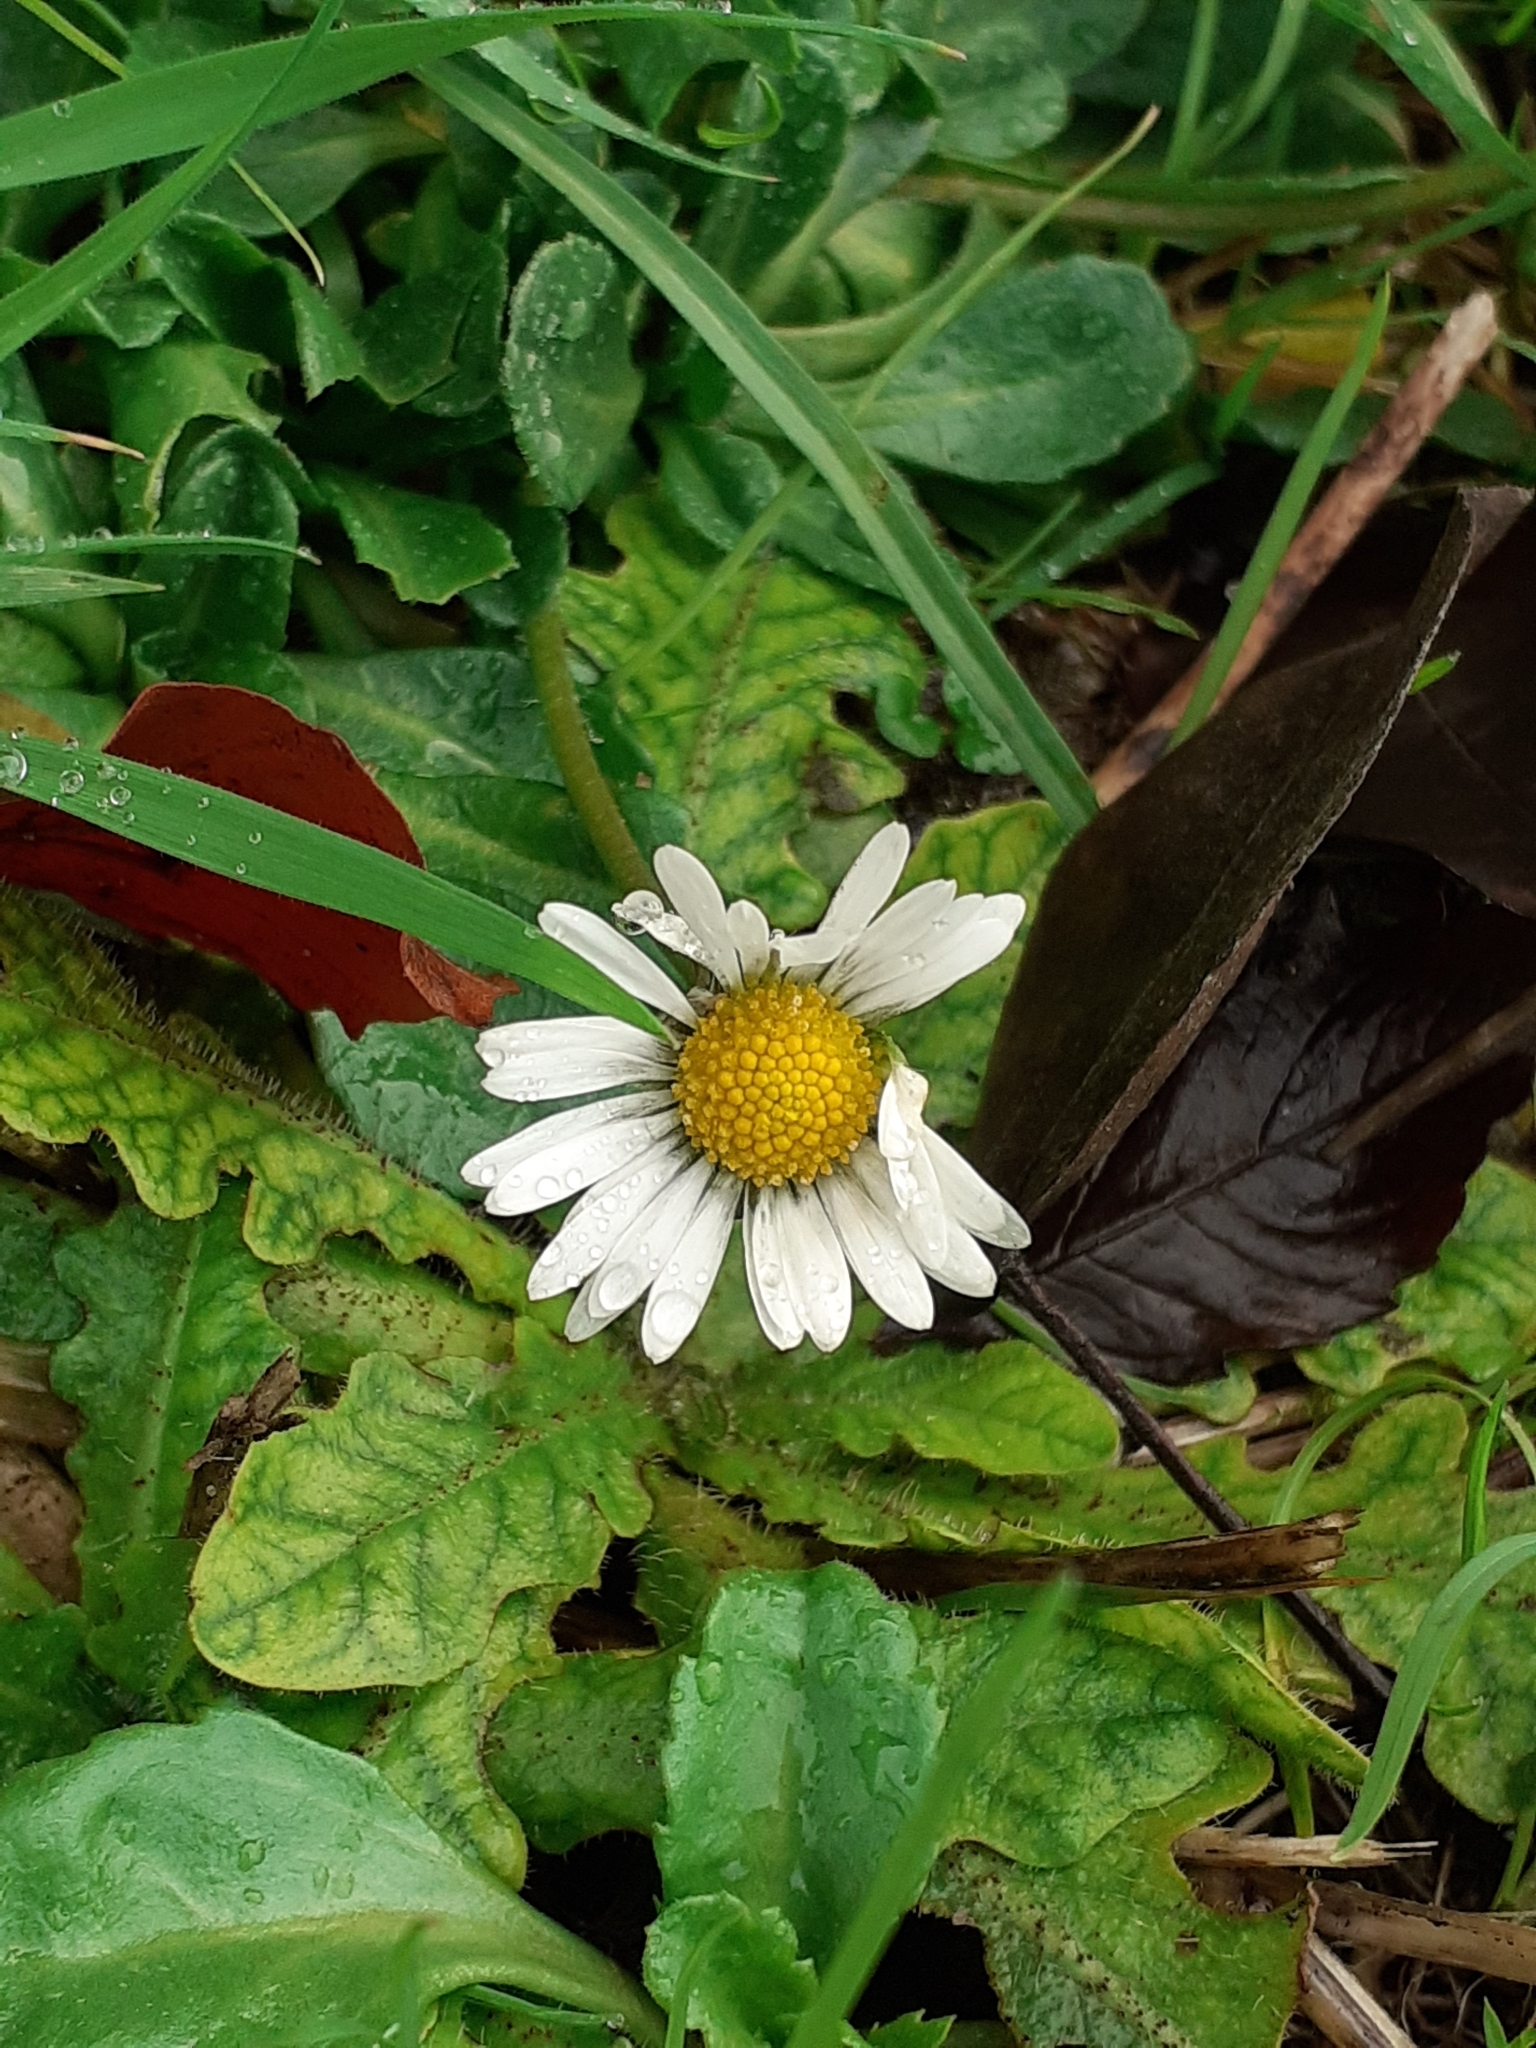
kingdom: Plantae
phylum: Tracheophyta
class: Magnoliopsida
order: Asterales
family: Asteraceae
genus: Bellis
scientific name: Bellis perennis
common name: Lawndaisy
